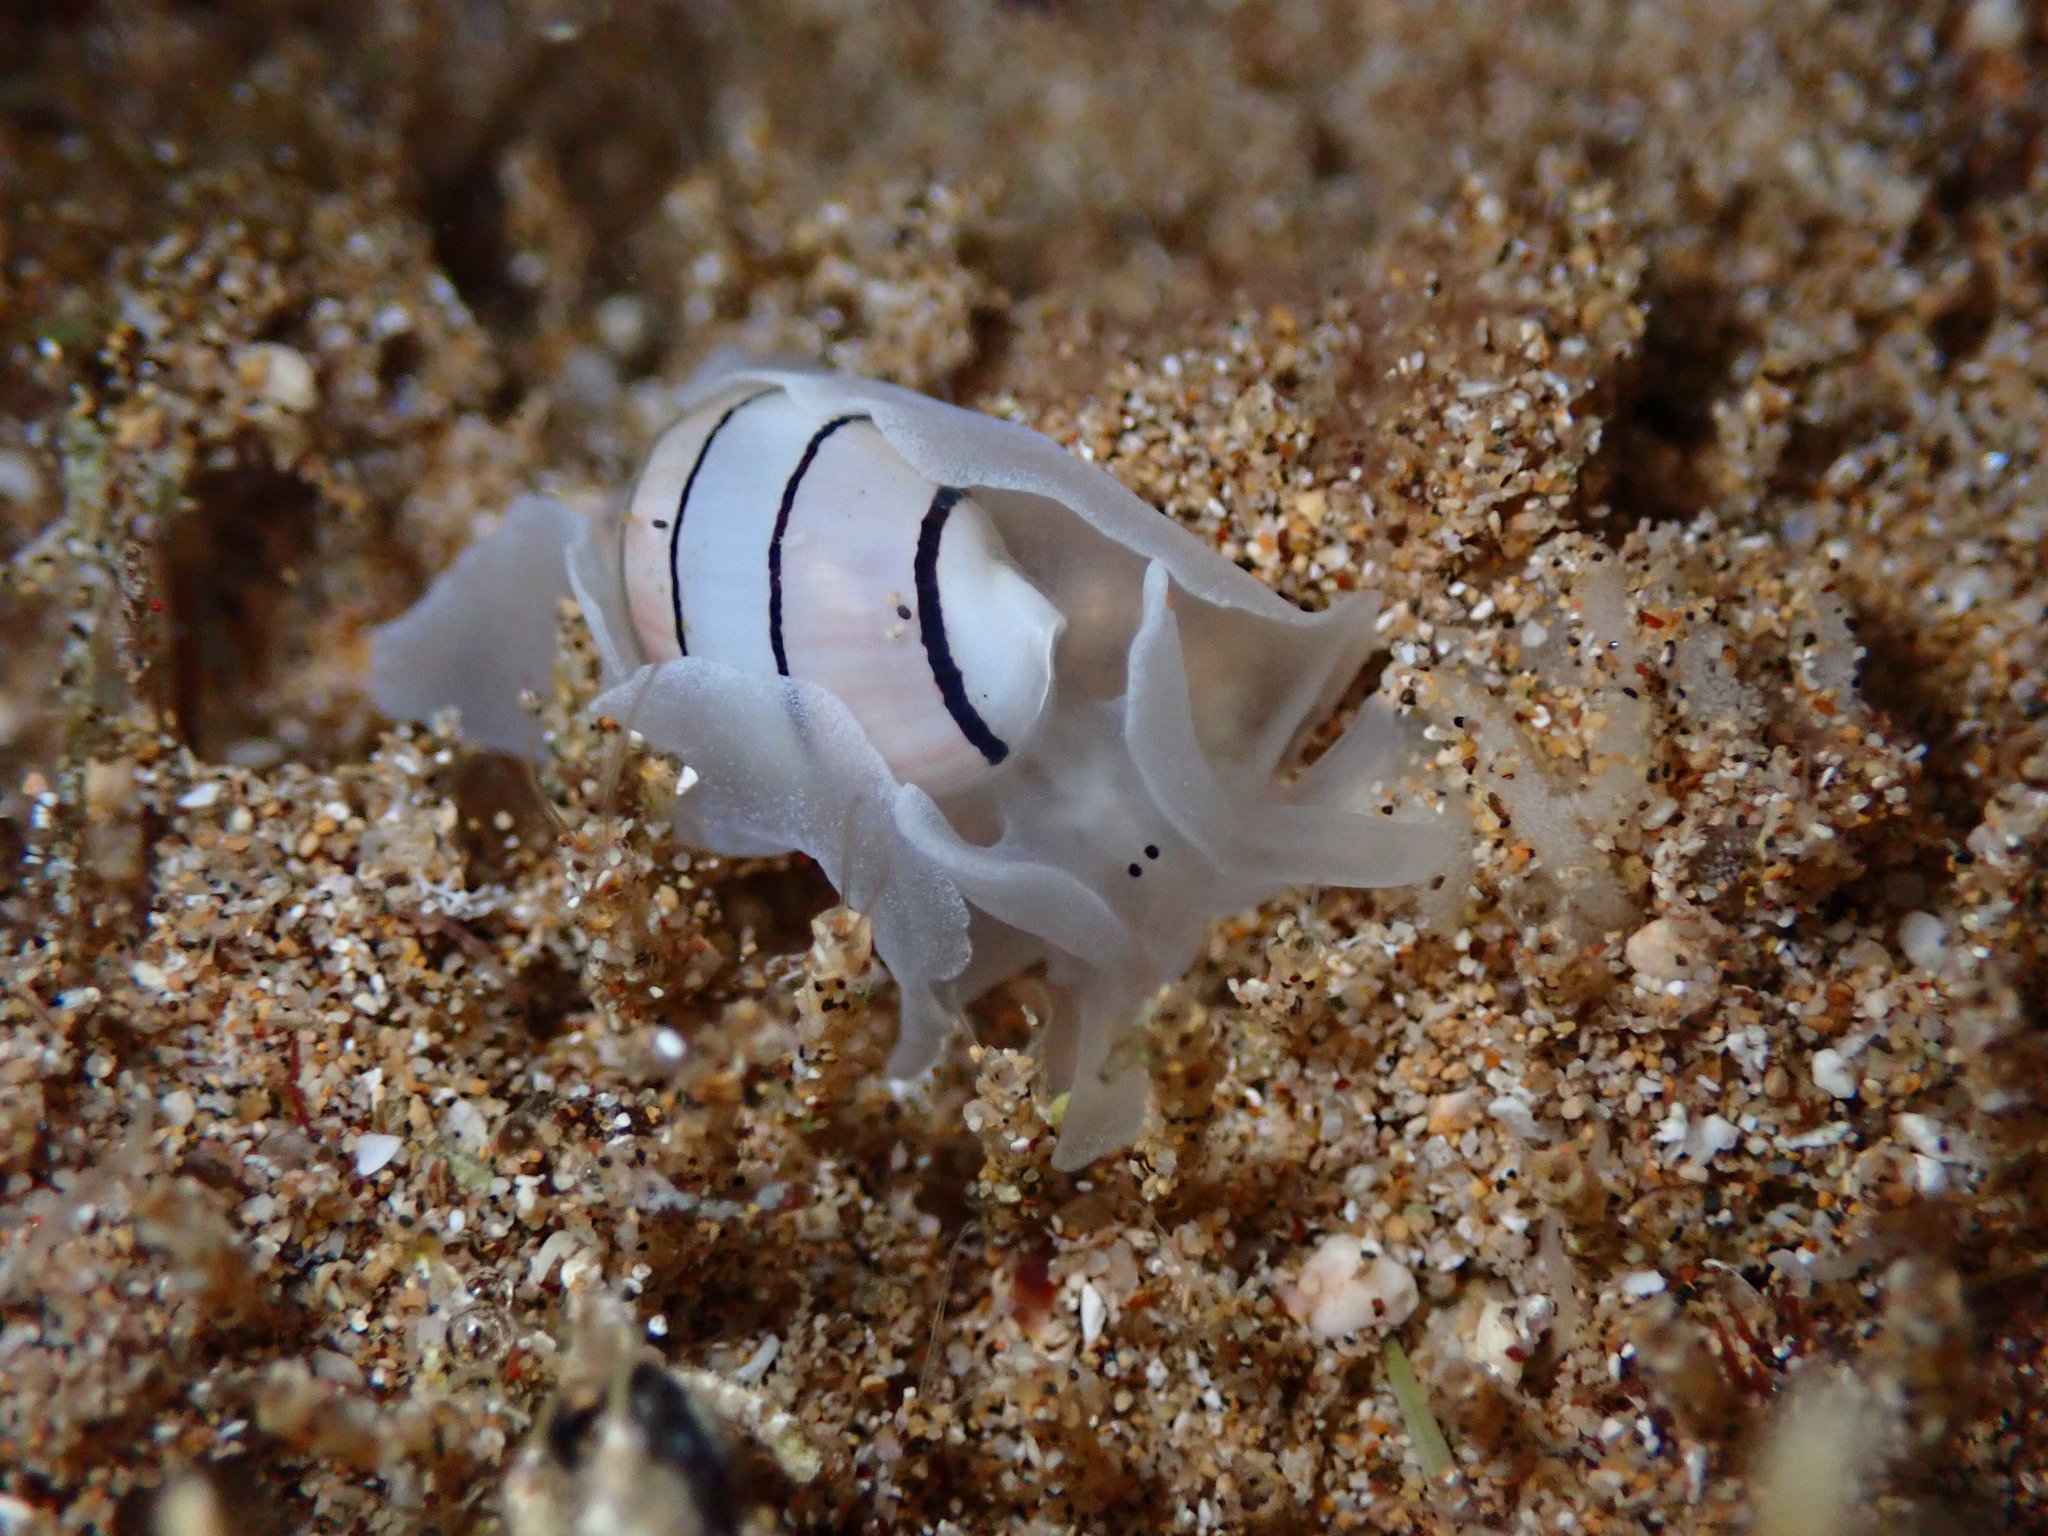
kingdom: Animalia
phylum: Mollusca
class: Gastropoda
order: Cephalaspidea
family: Aplustridae
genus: Aplustrum
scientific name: Aplustrum amplustre
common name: Royal paperbubble
